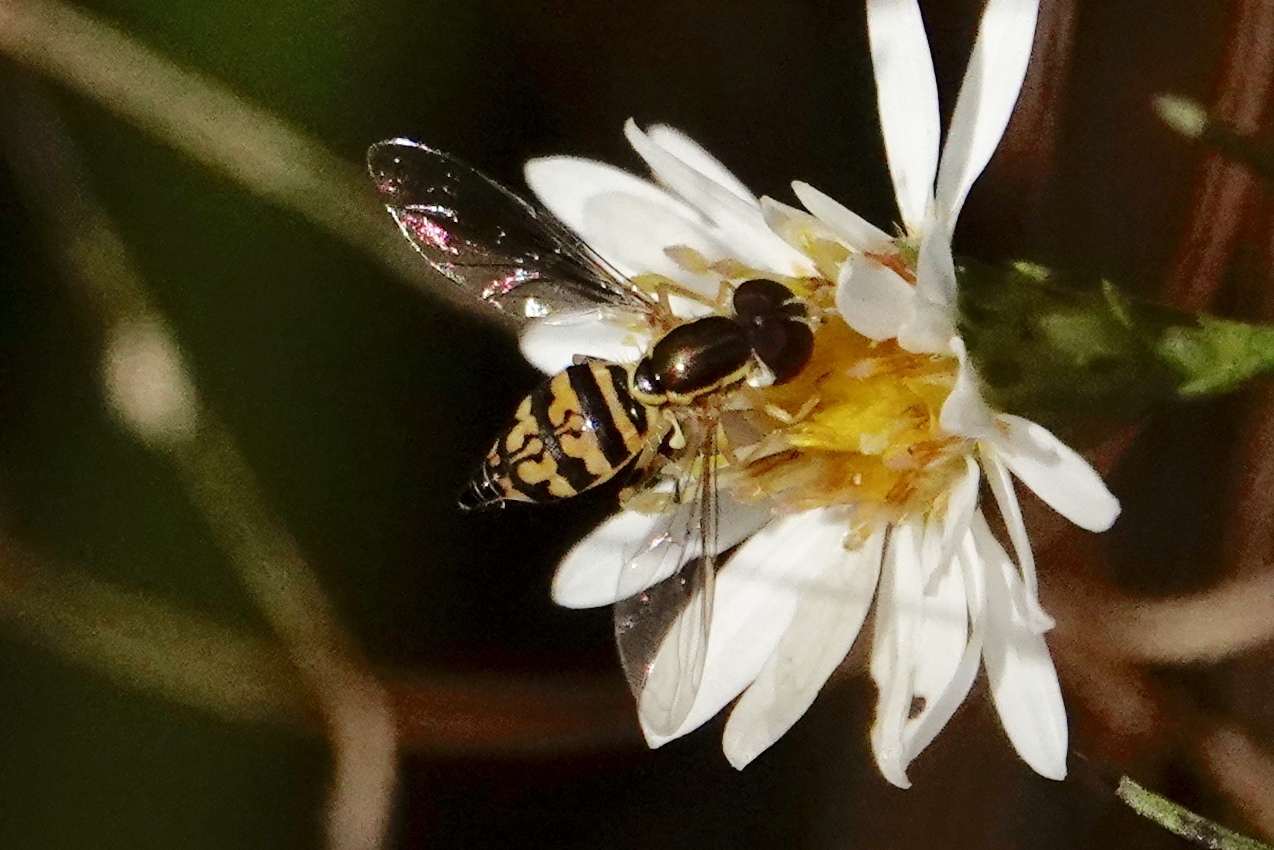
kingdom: Animalia
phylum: Arthropoda
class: Insecta
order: Diptera
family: Syrphidae
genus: Toxomerus
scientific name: Toxomerus geminatus
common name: Eastern calligrapher
